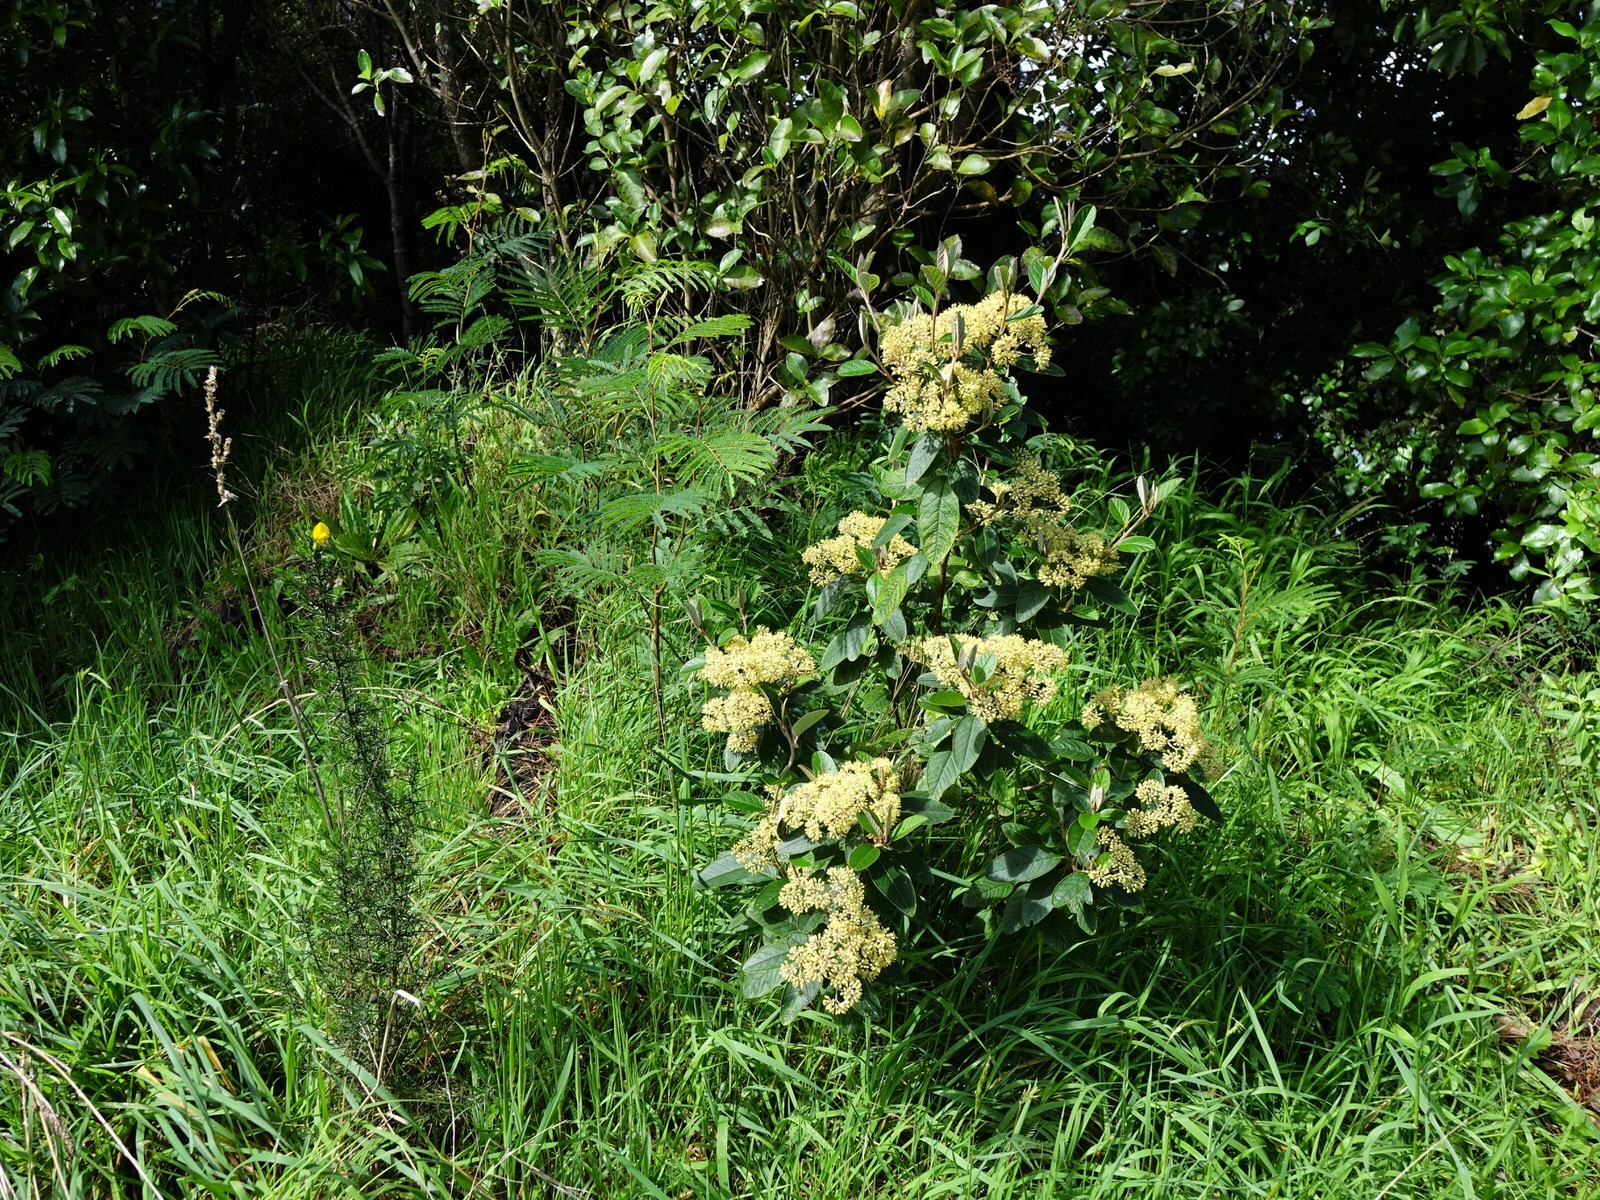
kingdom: Plantae
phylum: Tracheophyta
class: Magnoliopsida
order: Rosales
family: Rhamnaceae
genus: Pomaderris
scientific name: Pomaderris kumeraho
